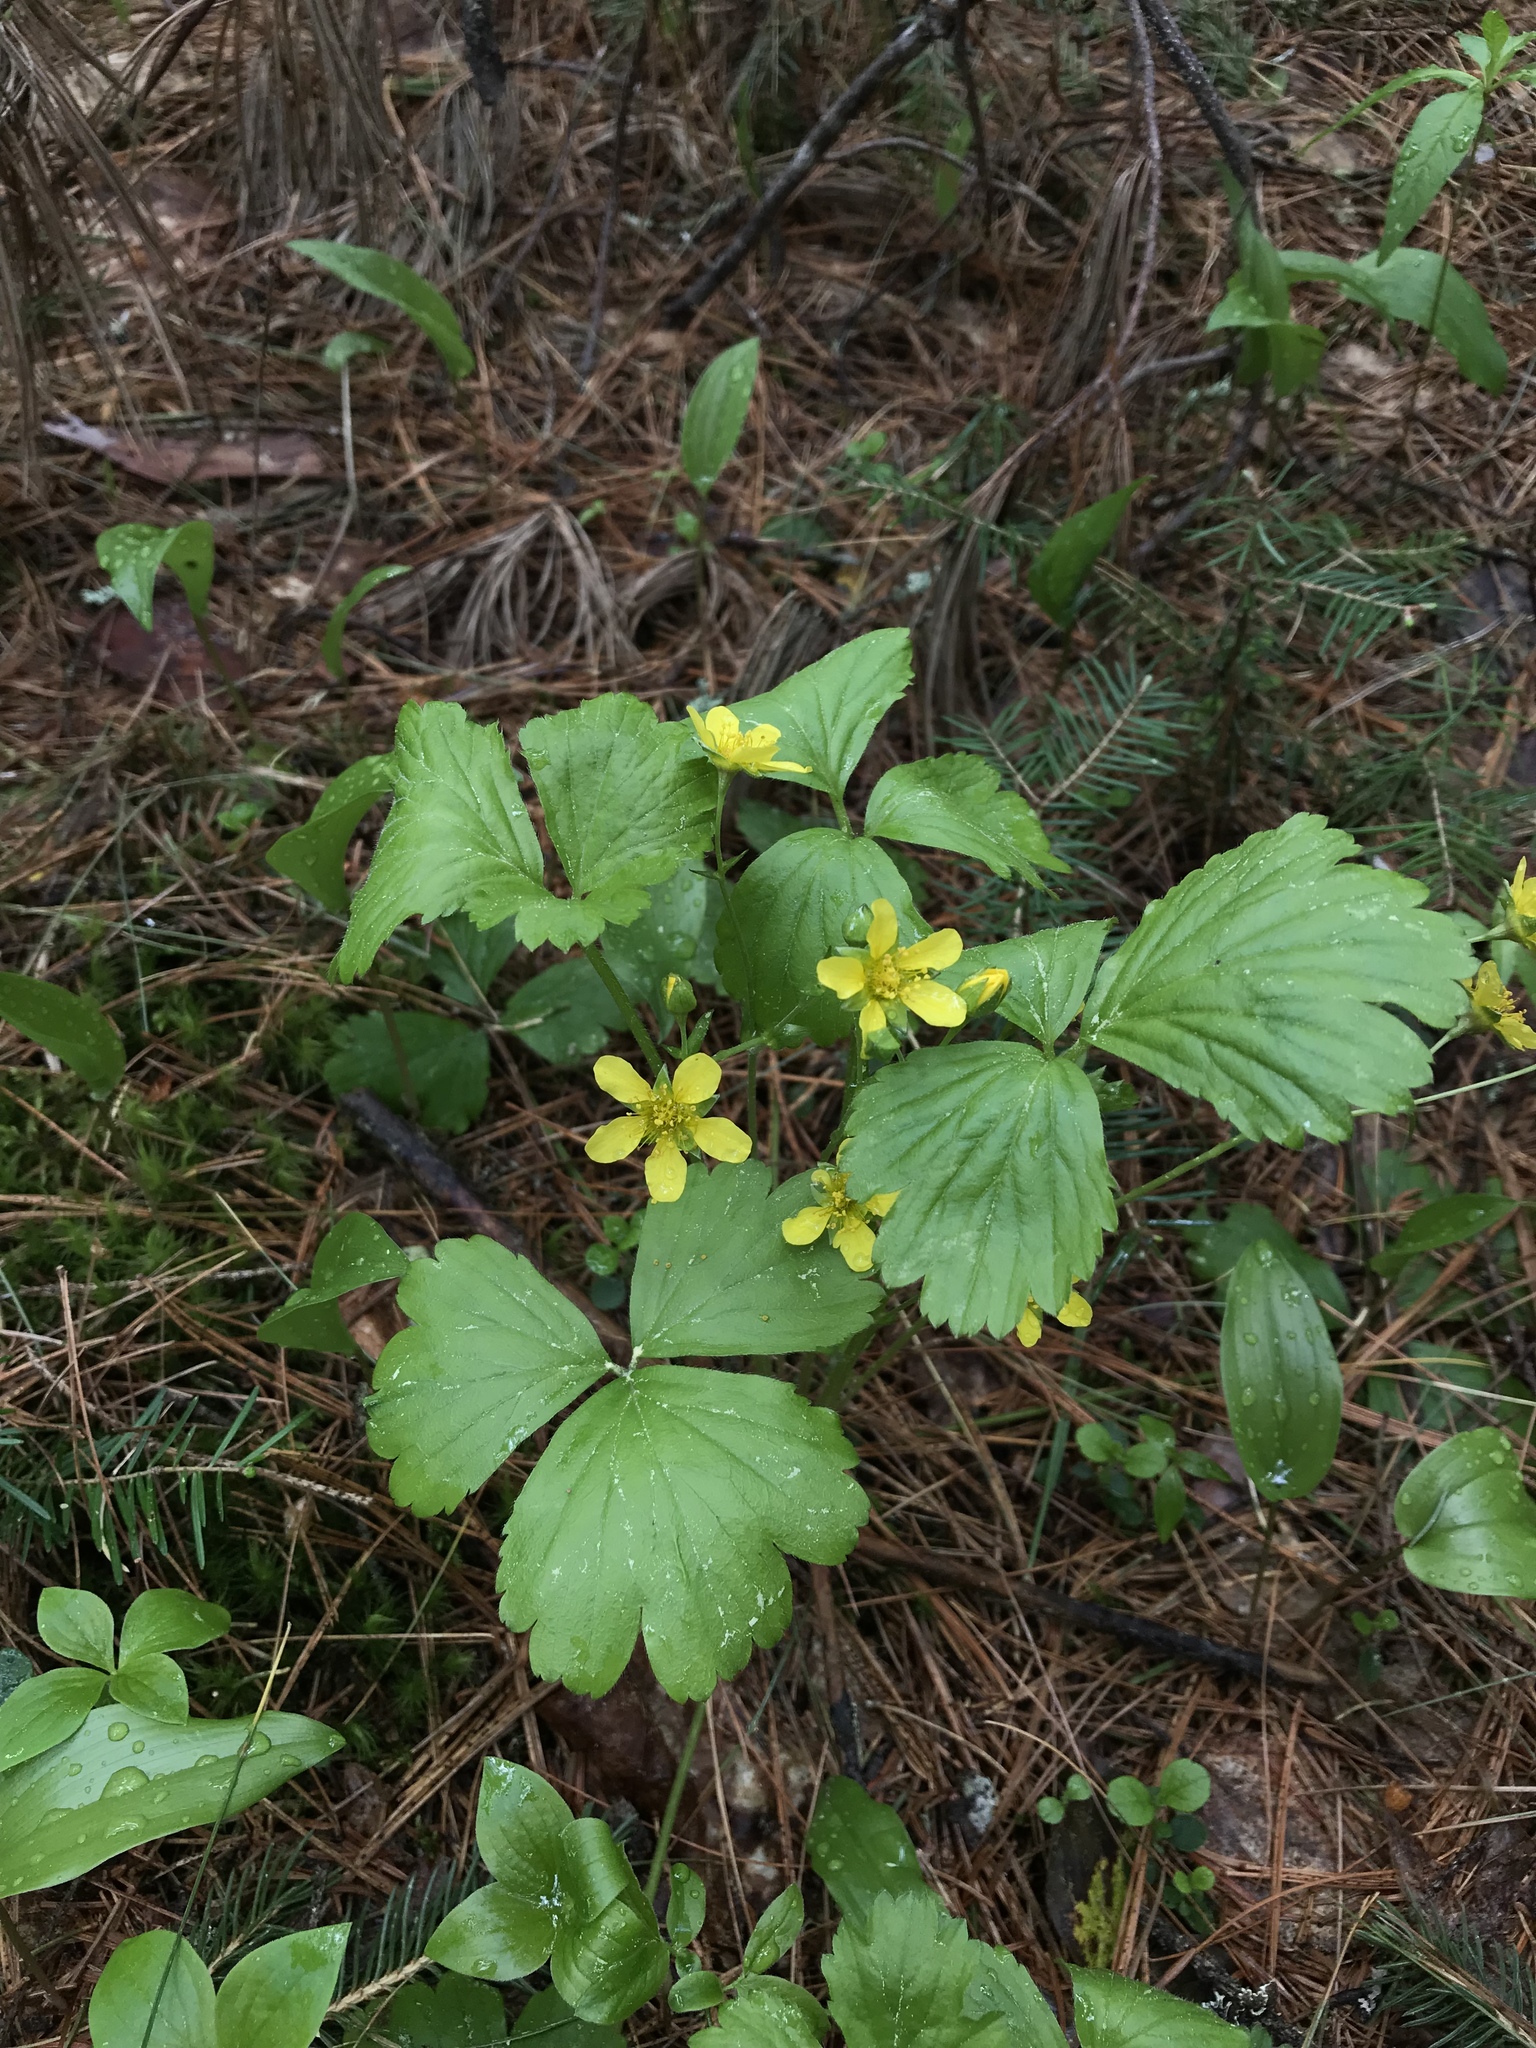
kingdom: Plantae
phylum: Tracheophyta
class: Magnoliopsida
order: Rosales
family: Rosaceae
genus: Geum
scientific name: Geum fragarioides
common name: Appalachian barren strawberry
